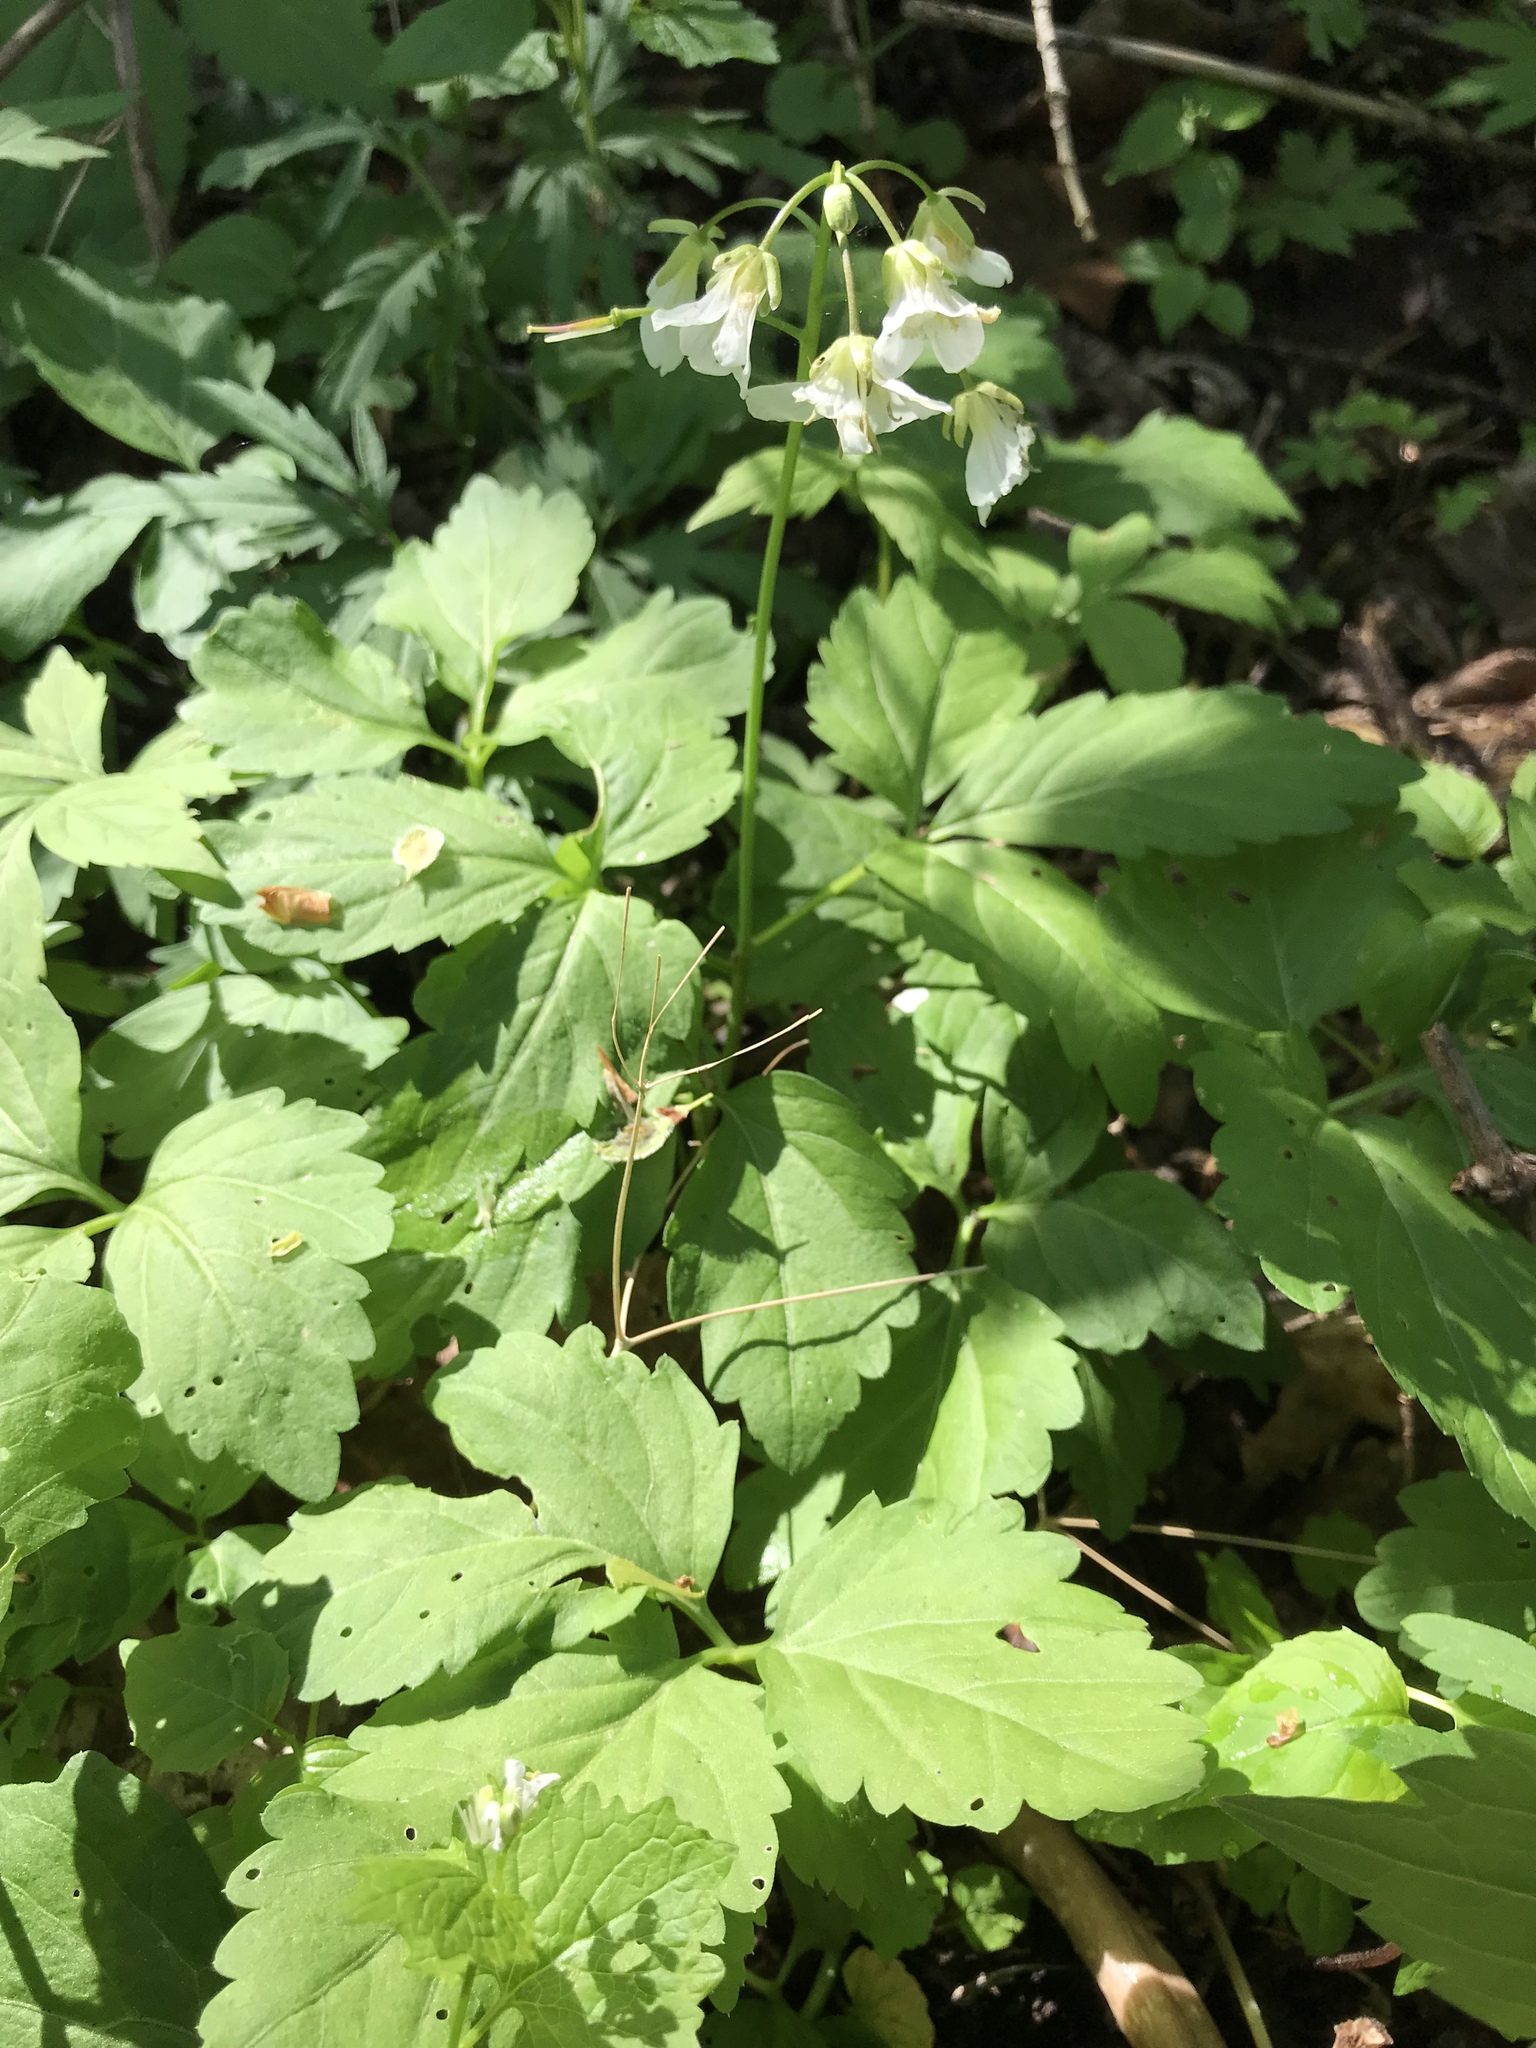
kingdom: Plantae
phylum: Tracheophyta
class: Magnoliopsida
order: Brassicales
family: Brassicaceae
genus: Cardamine
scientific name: Cardamine diphylla
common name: Broad-leaved toothwort
